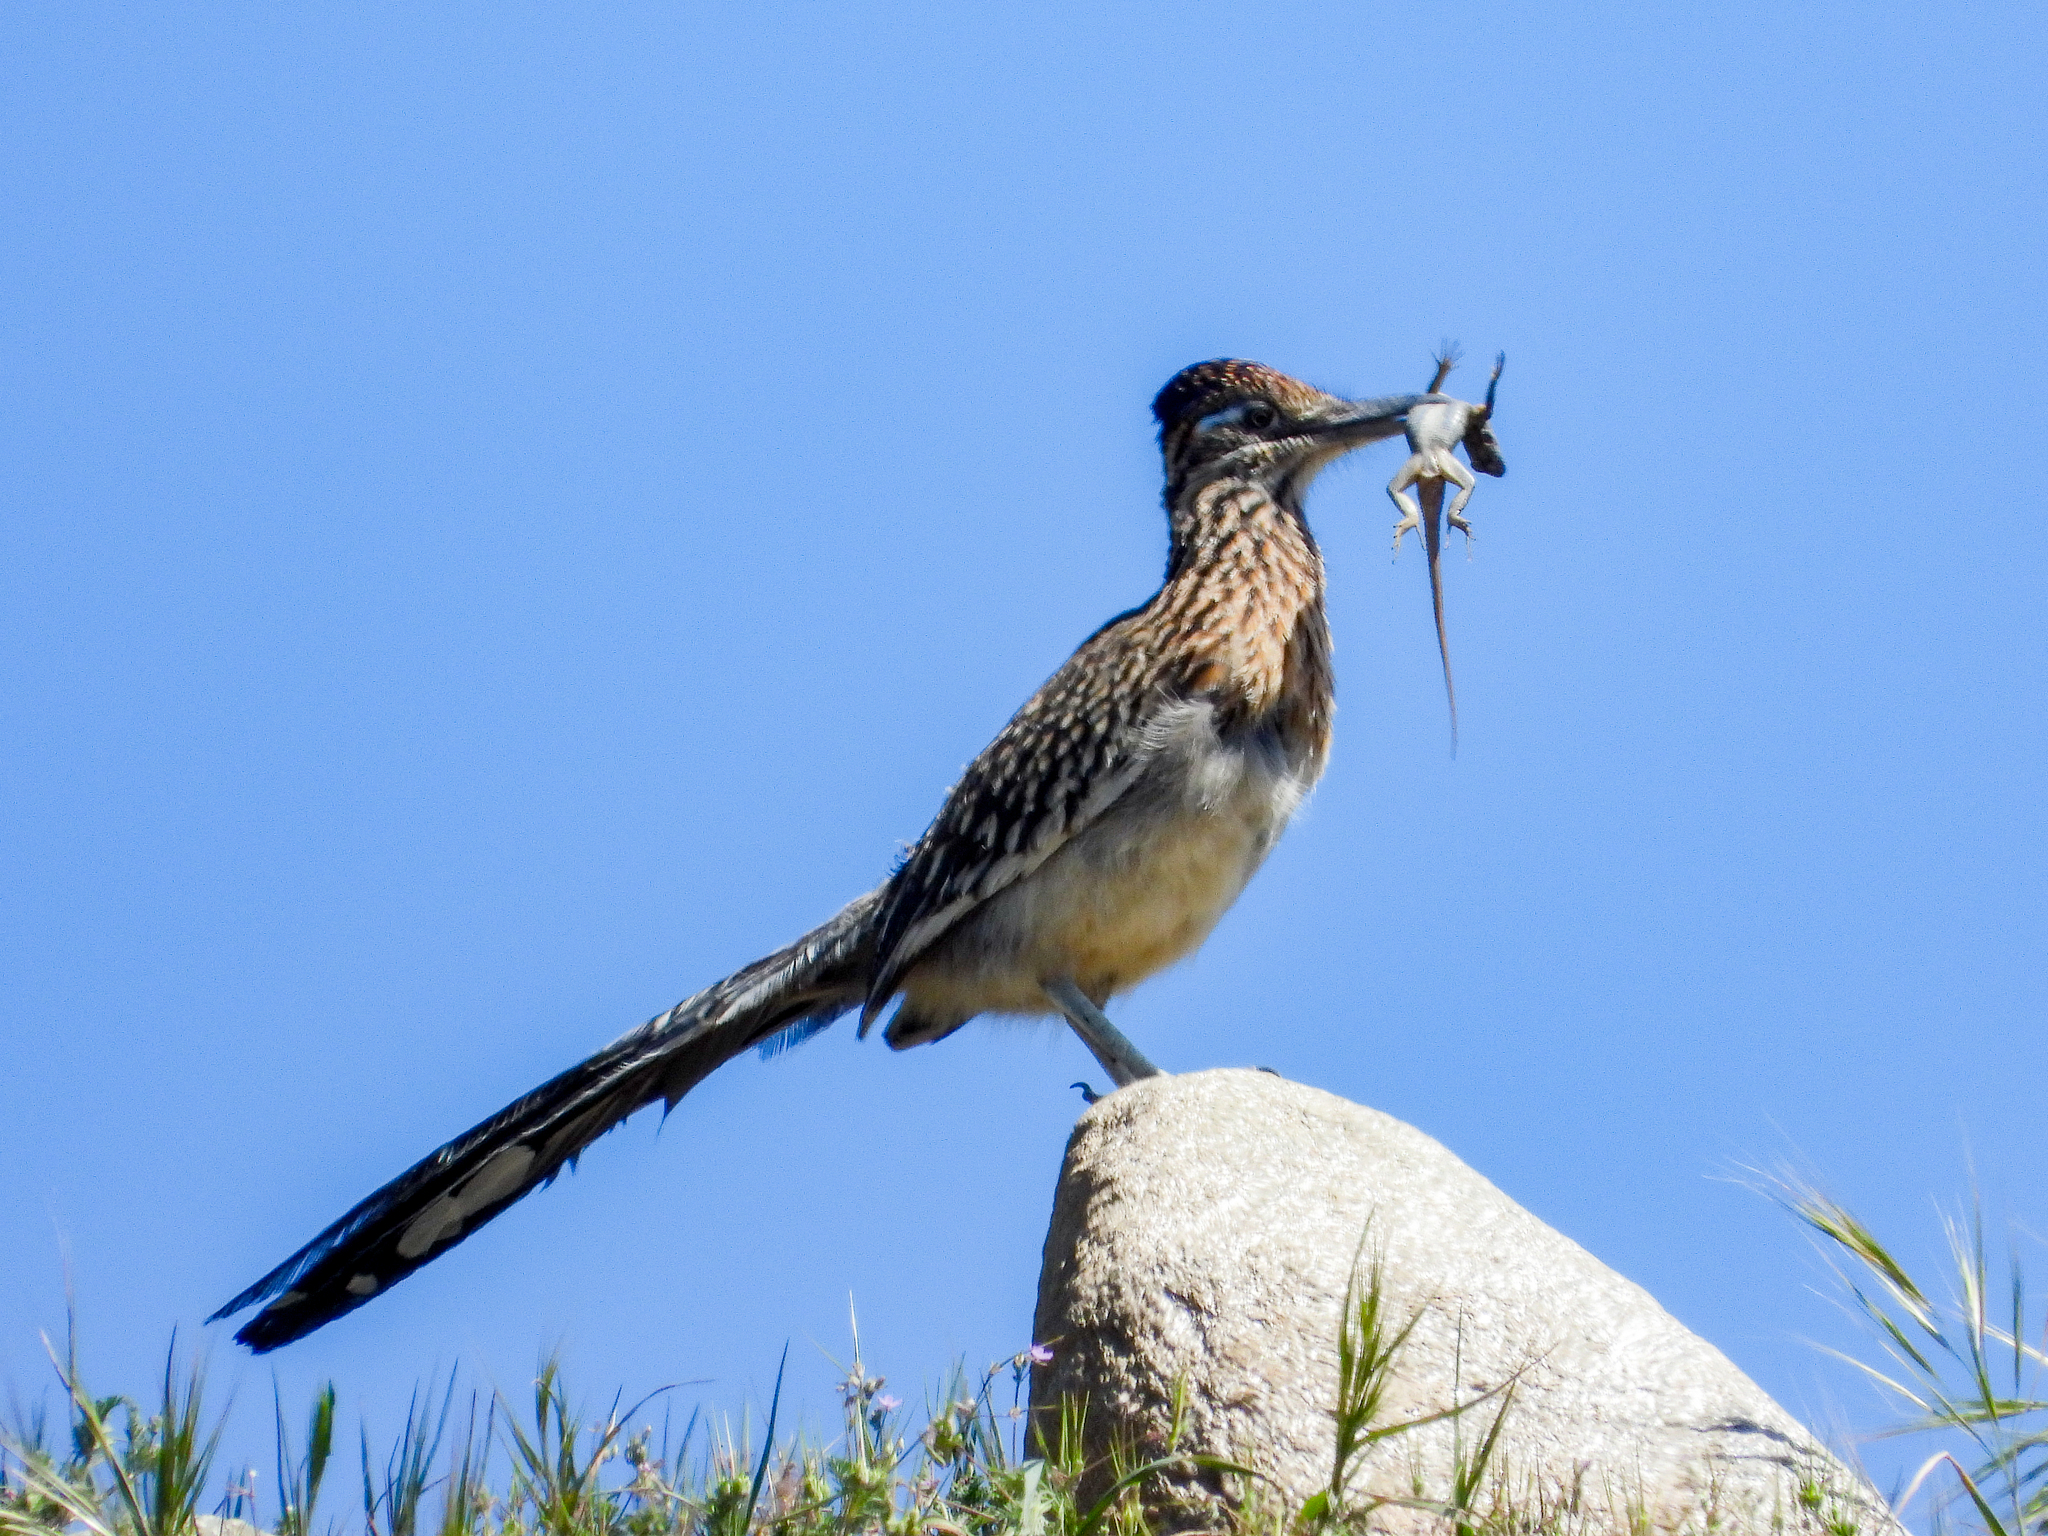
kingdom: Animalia
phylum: Chordata
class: Aves
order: Cuculiformes
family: Cuculidae
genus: Geococcyx
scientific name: Geococcyx californianus
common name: Greater roadrunner
